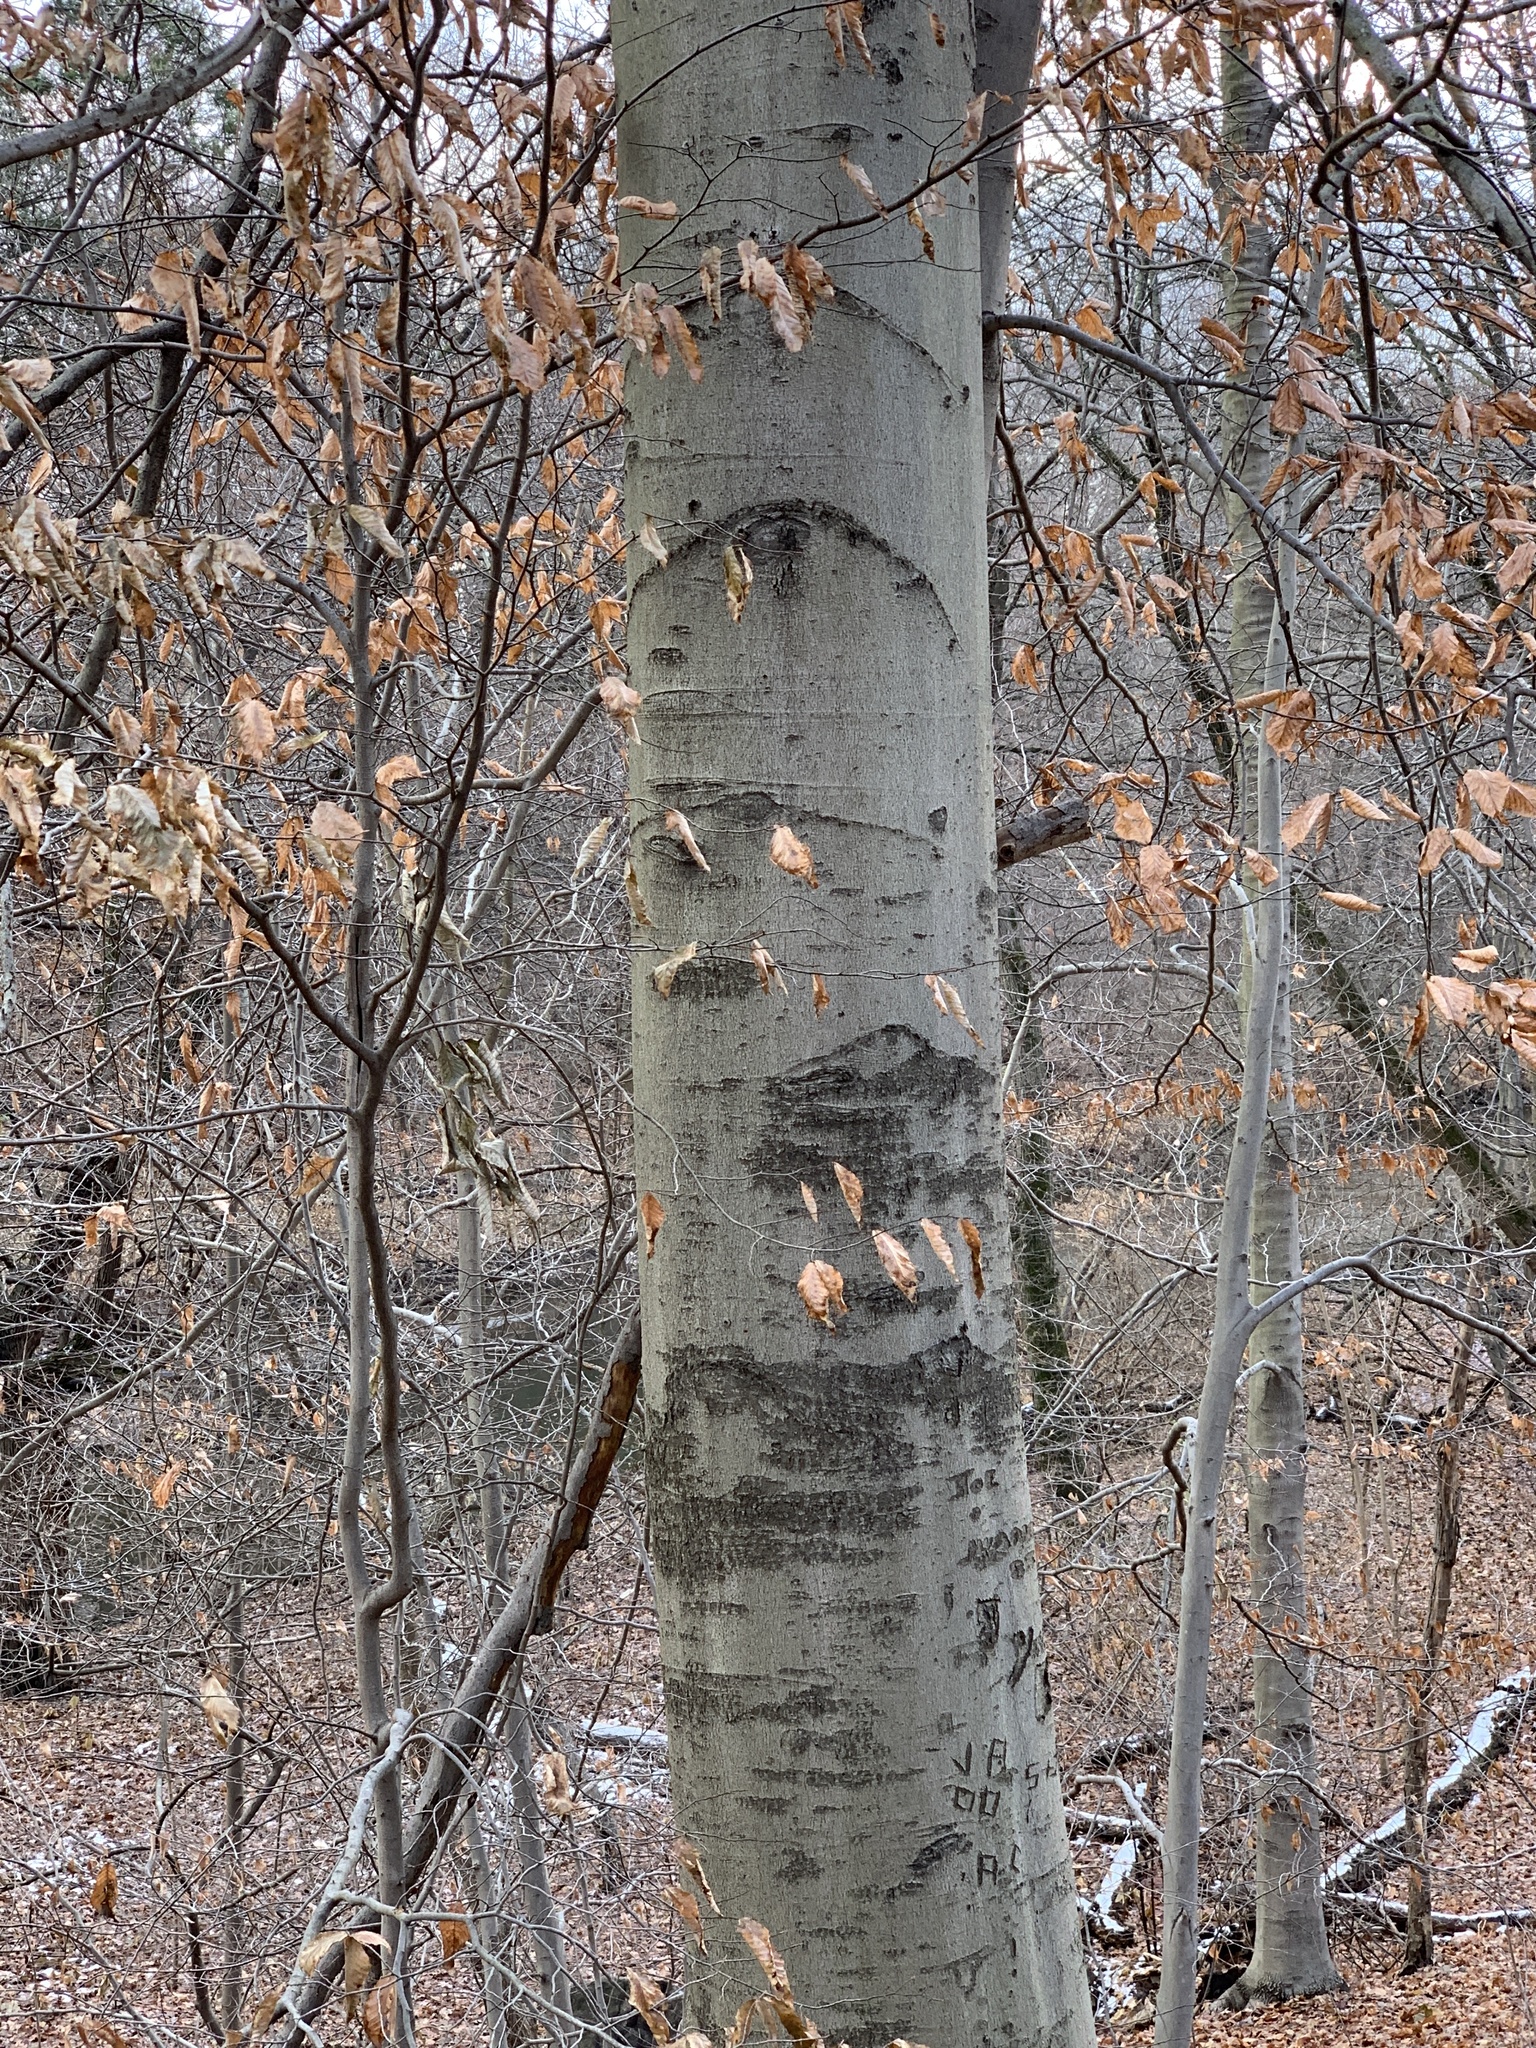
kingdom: Plantae
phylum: Tracheophyta
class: Magnoliopsida
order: Fagales
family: Fagaceae
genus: Fagus
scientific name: Fagus grandifolia
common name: American beech
